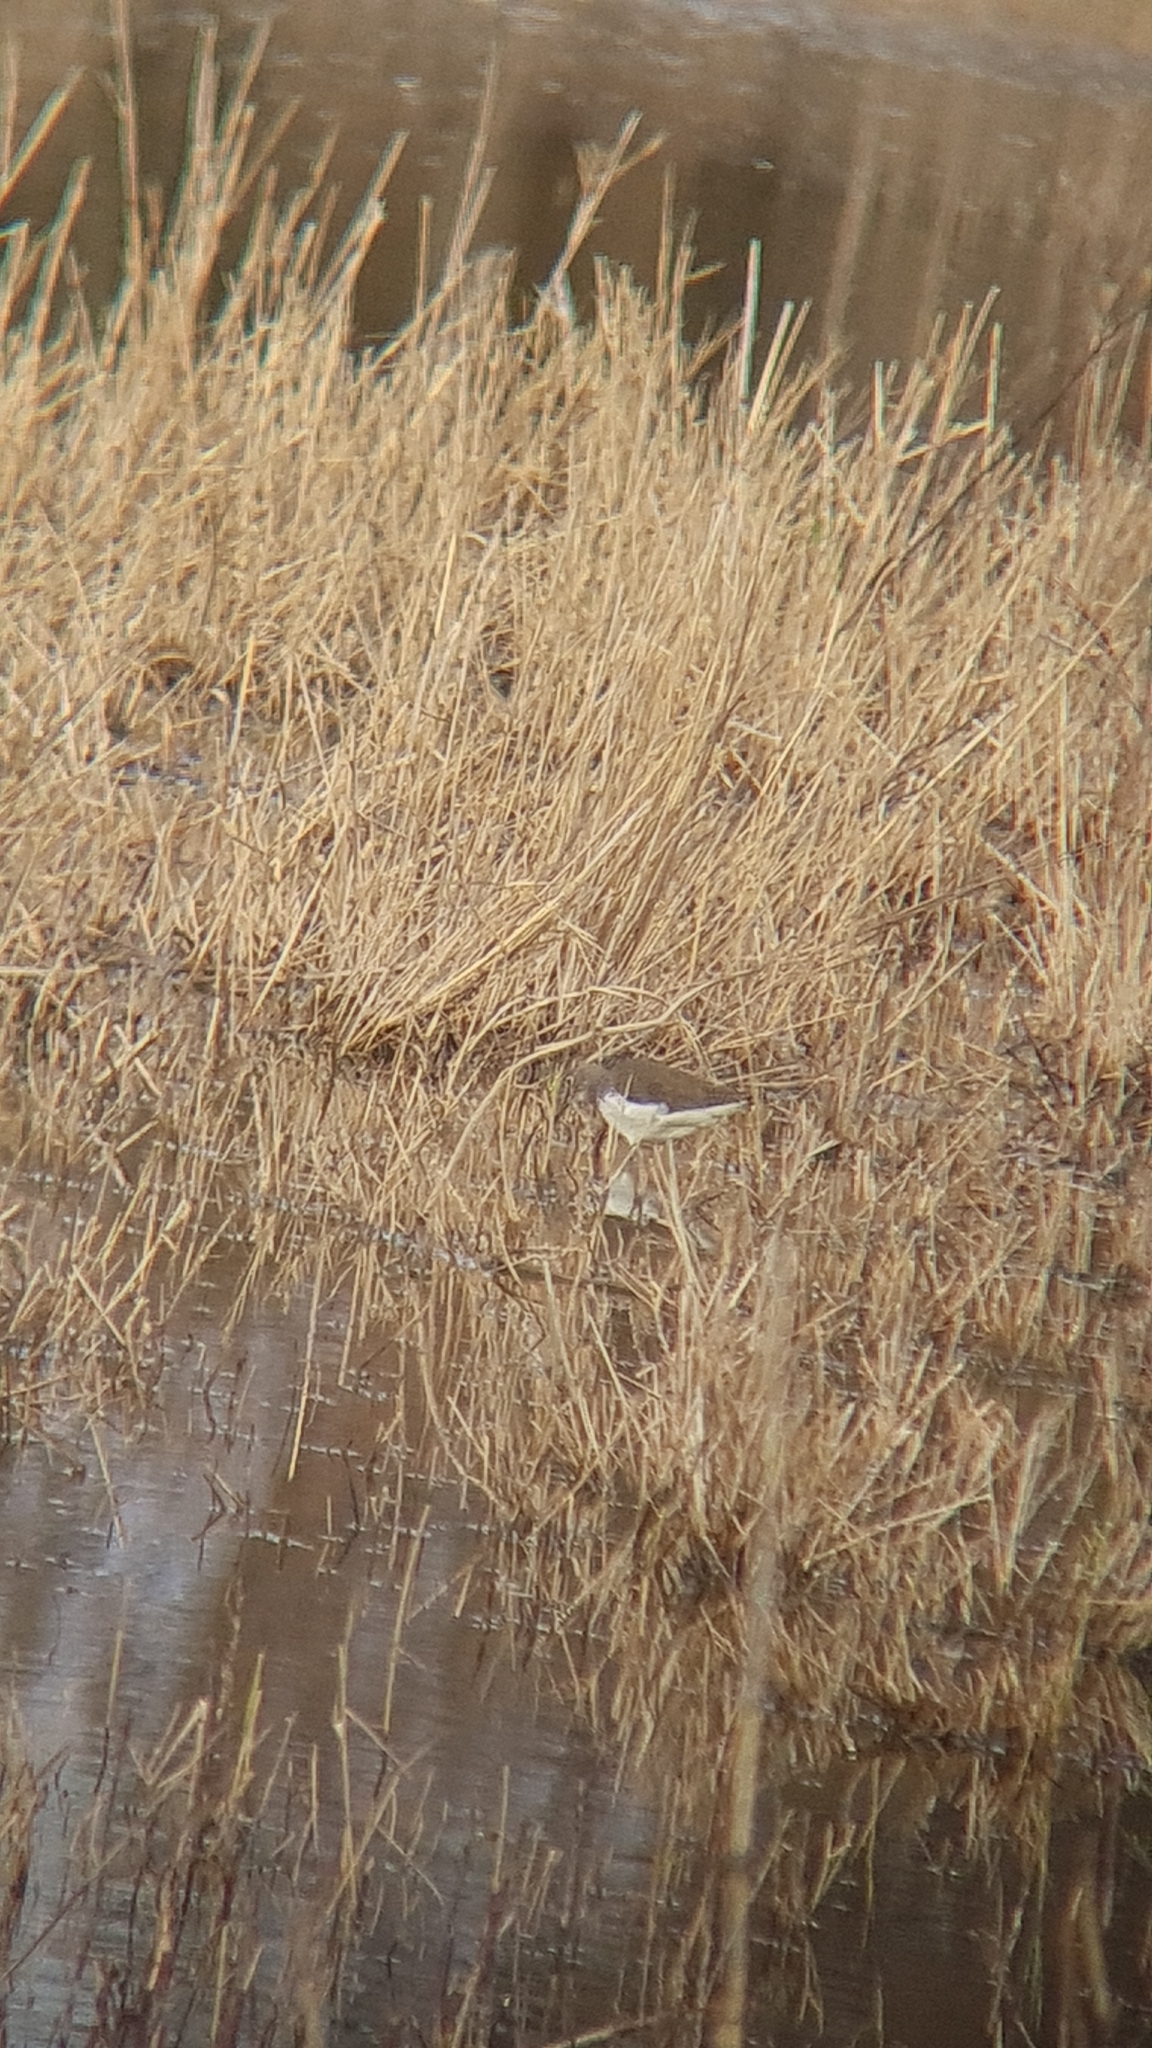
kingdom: Animalia
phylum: Chordata
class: Aves
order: Charadriiformes
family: Scolopacidae
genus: Tringa
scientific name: Tringa ochropus
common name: Green sandpiper
